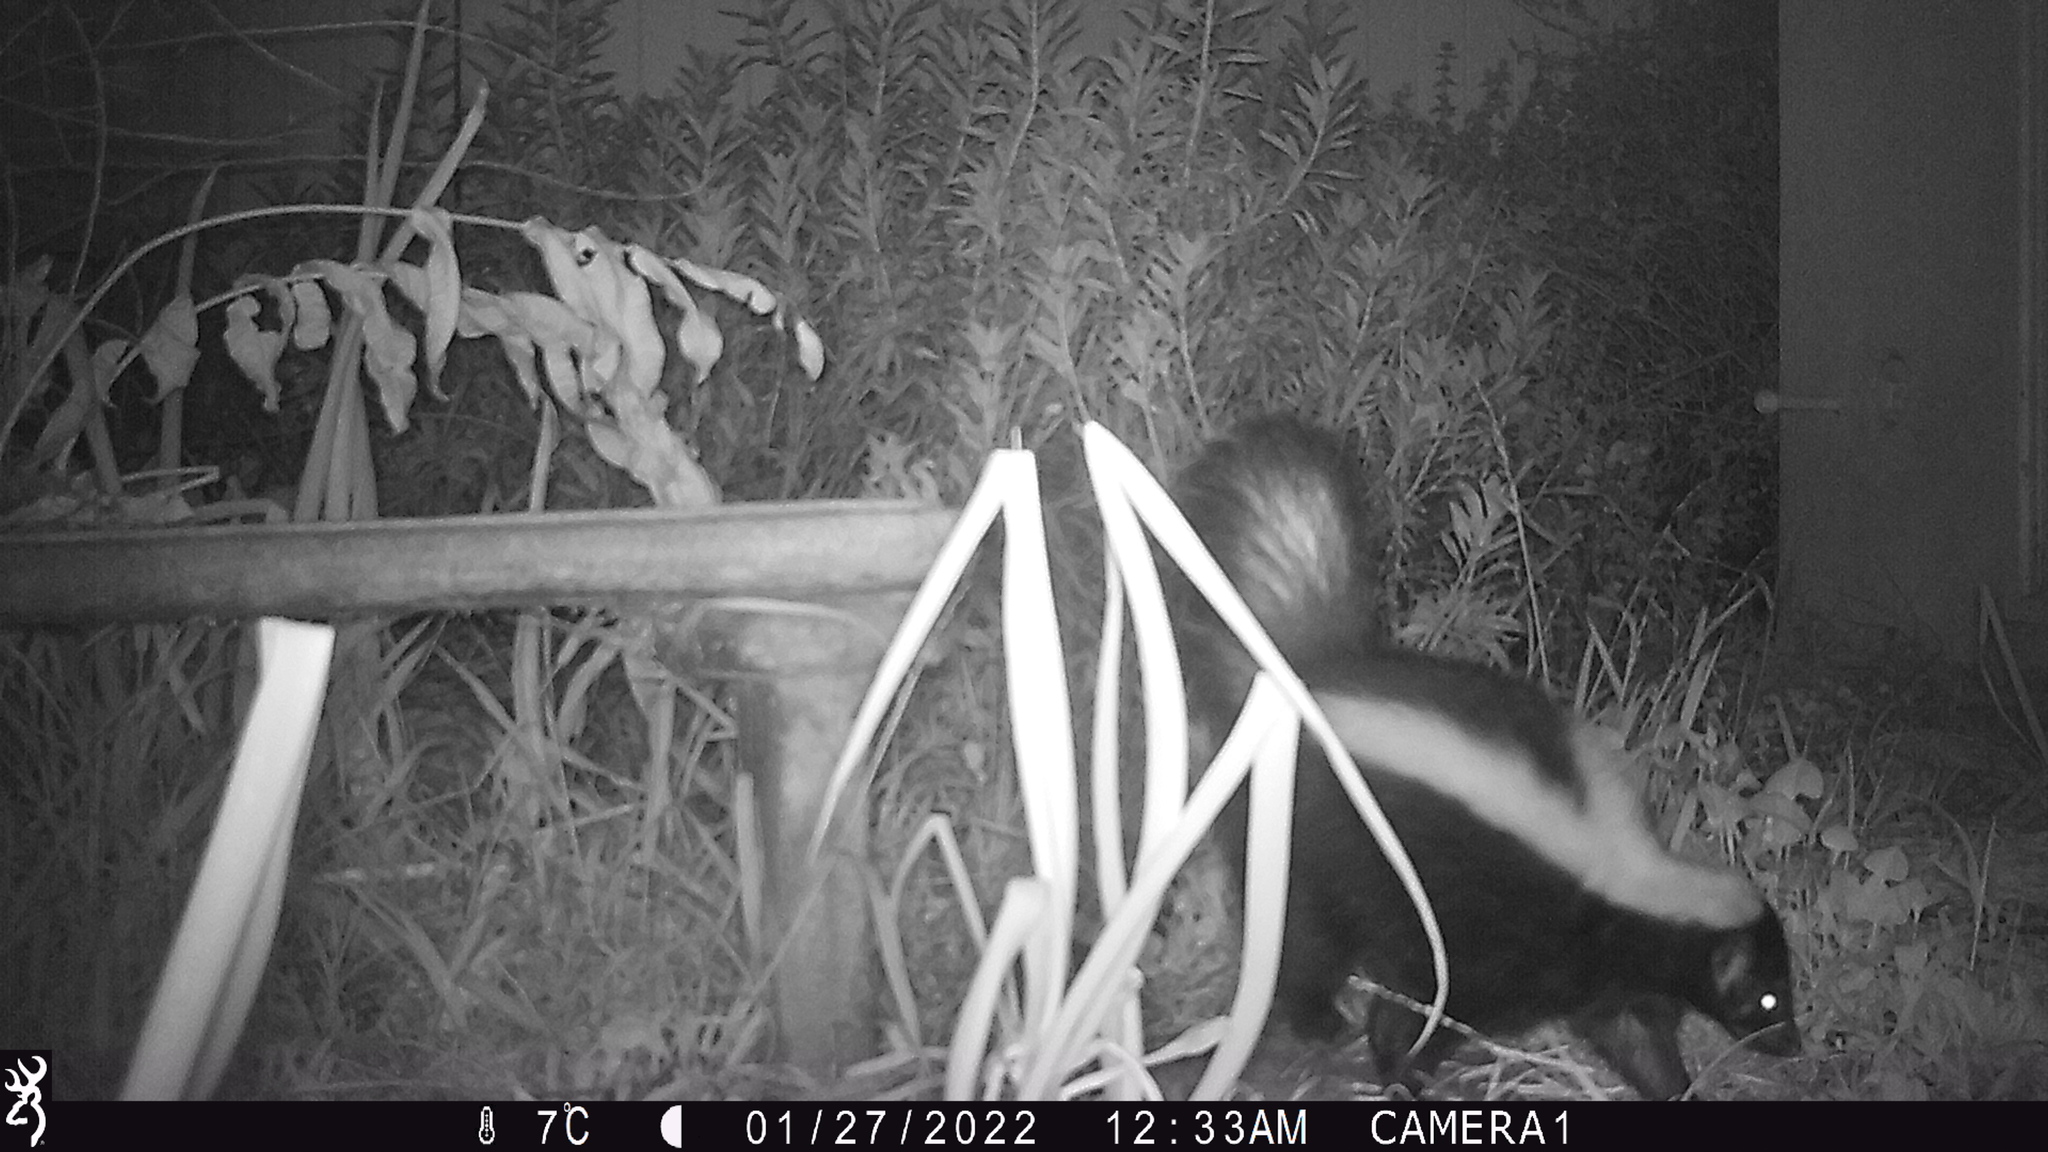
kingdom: Animalia
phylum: Chordata
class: Mammalia
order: Carnivora
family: Mephitidae
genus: Mephitis
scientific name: Mephitis mephitis
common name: Striped skunk
